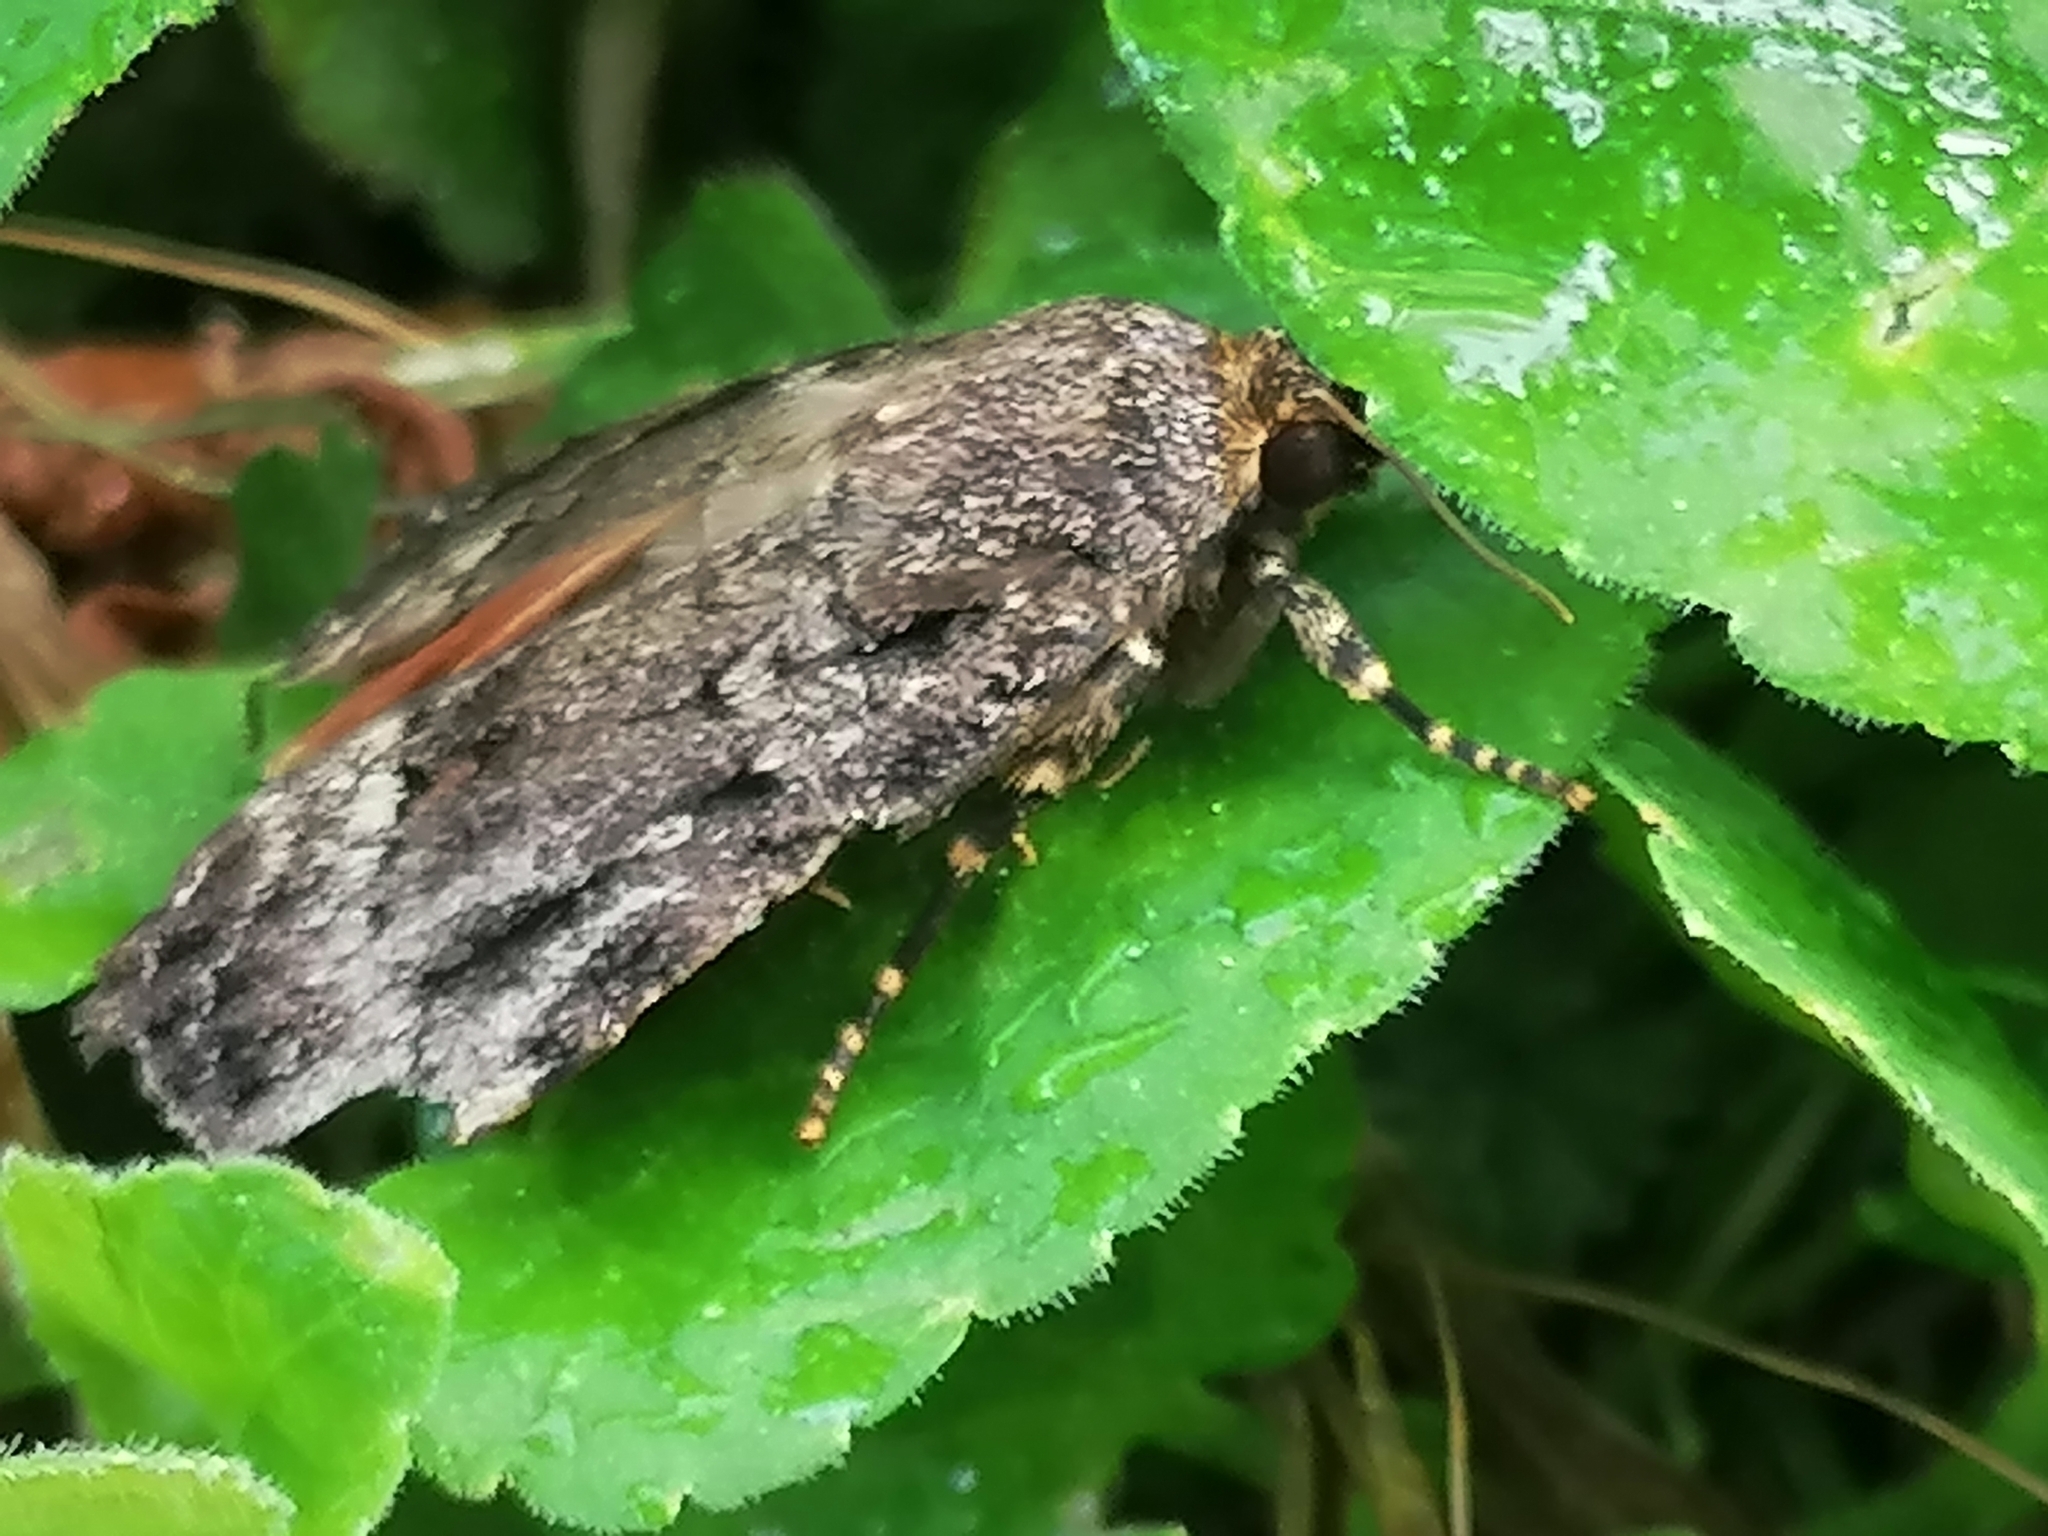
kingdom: Animalia
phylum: Arthropoda
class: Insecta
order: Lepidoptera
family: Noctuidae
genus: Amphipyra
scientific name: Amphipyra pyramidea
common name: Copper underwing
